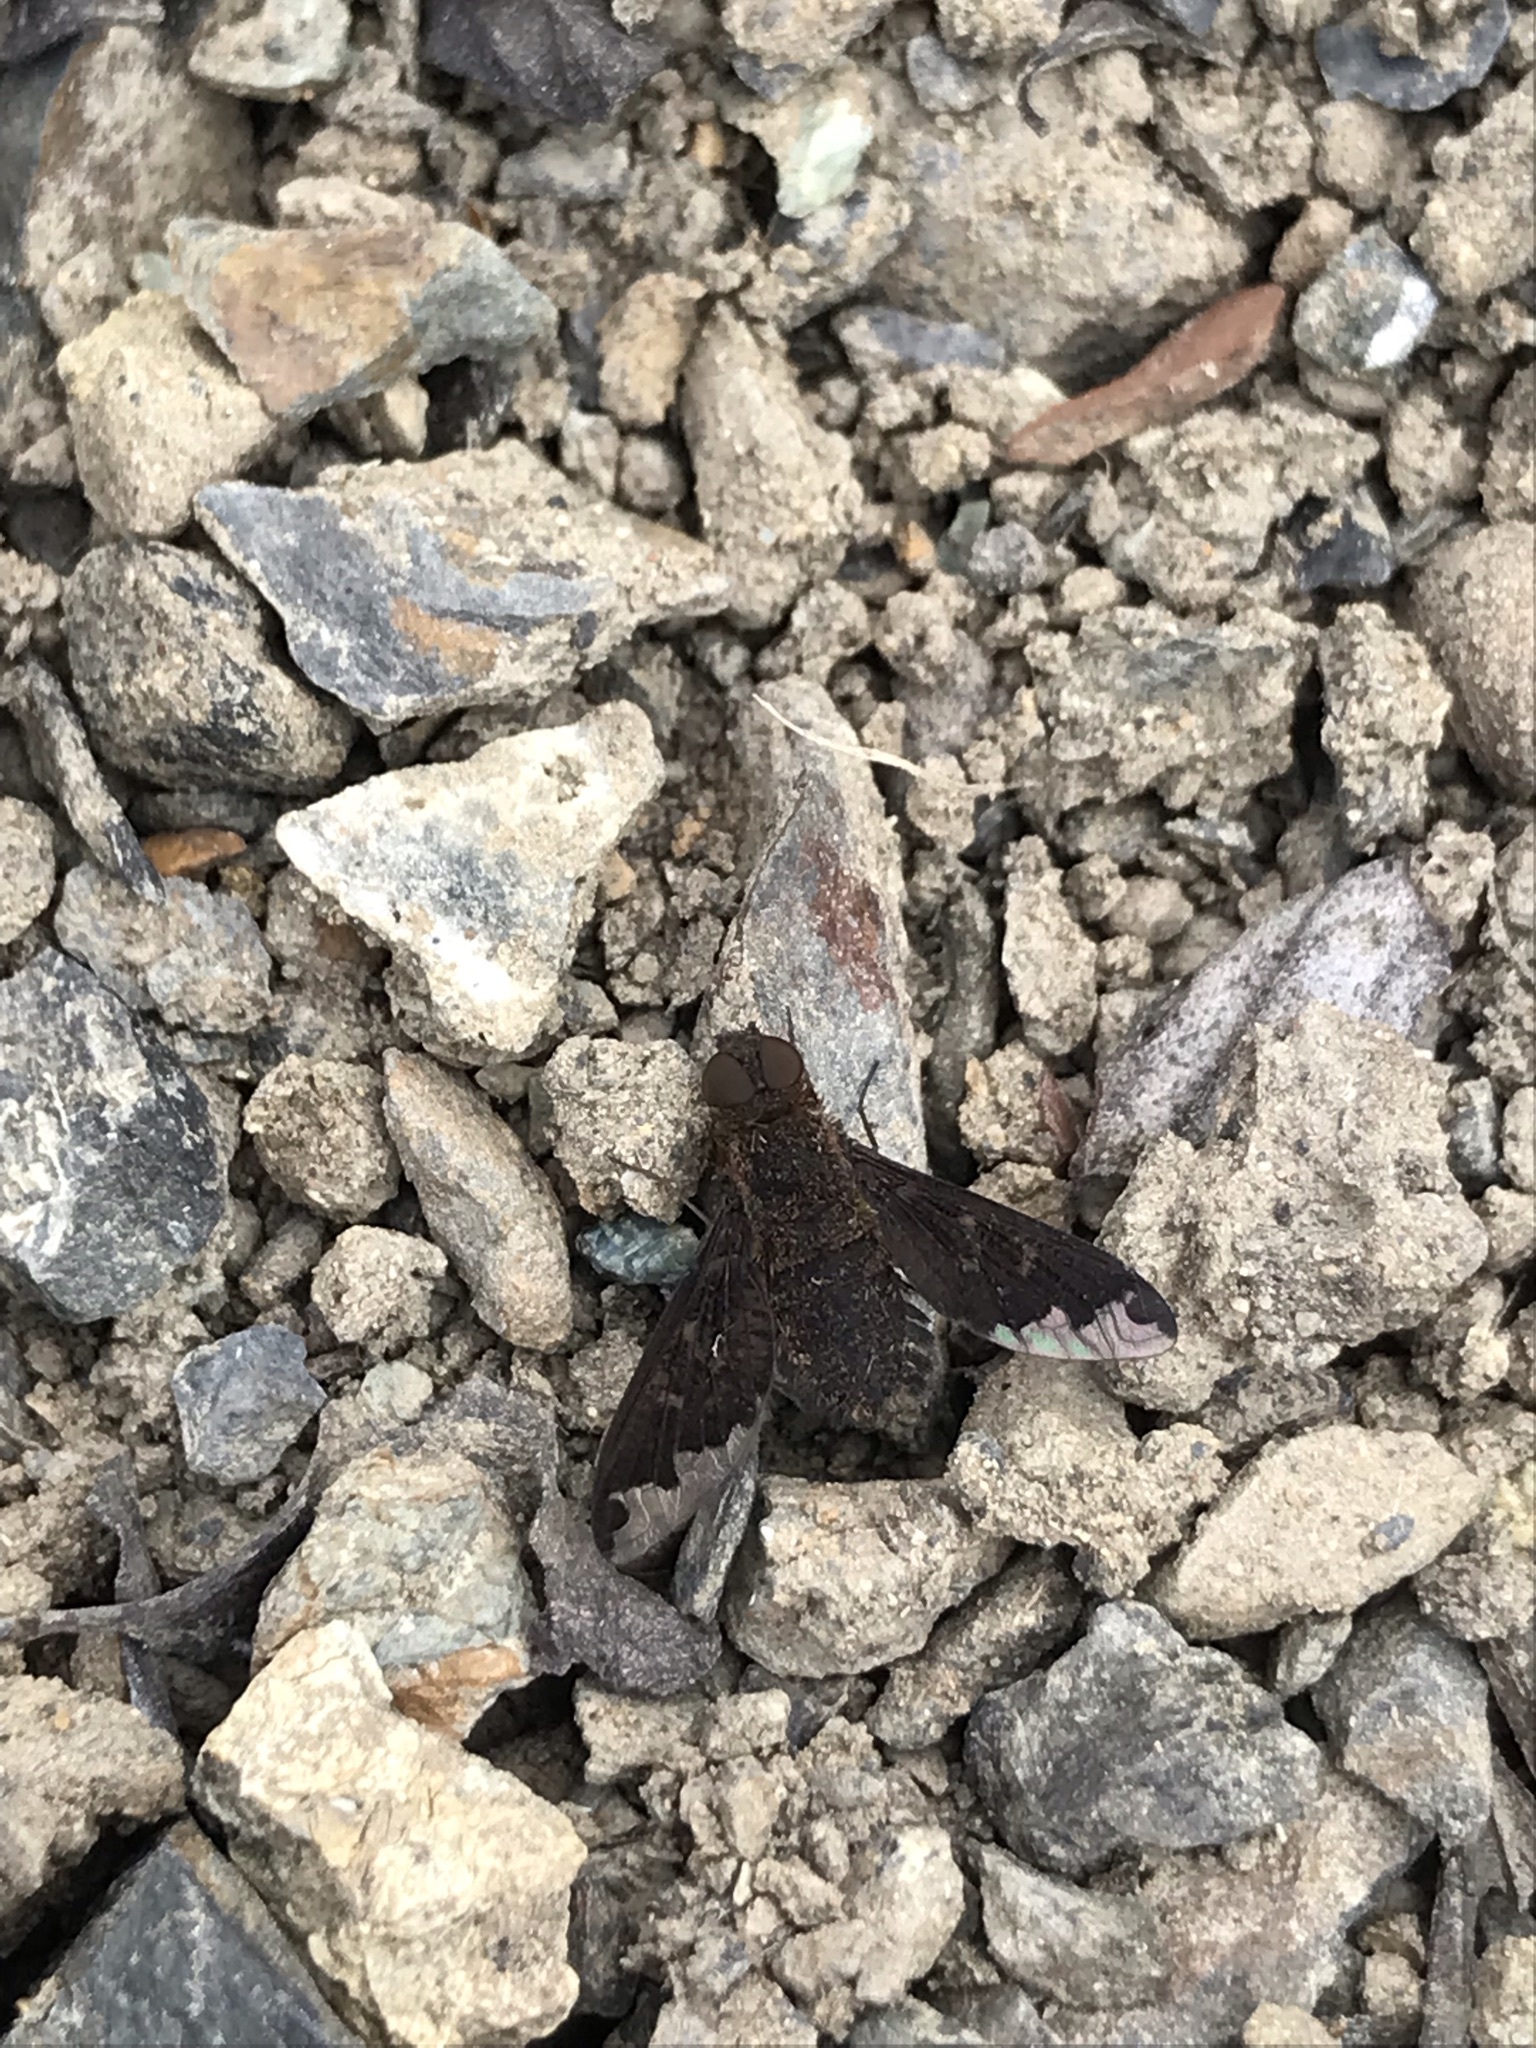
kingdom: Animalia
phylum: Arthropoda
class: Insecta
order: Diptera
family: Bombyliidae
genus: Hemipenthes
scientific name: Hemipenthes sinuosus
